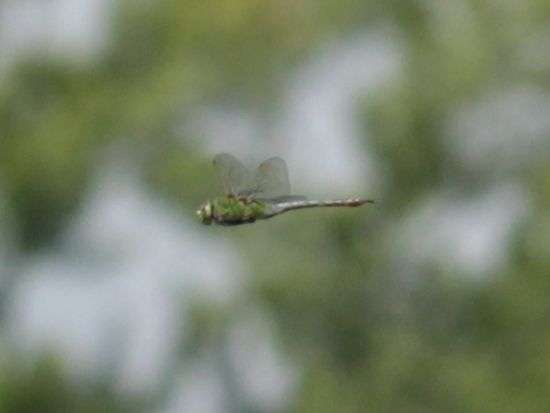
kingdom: Animalia
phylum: Arthropoda
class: Insecta
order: Odonata
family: Aeshnidae
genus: Anax
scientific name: Anax junius
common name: Common green darner
